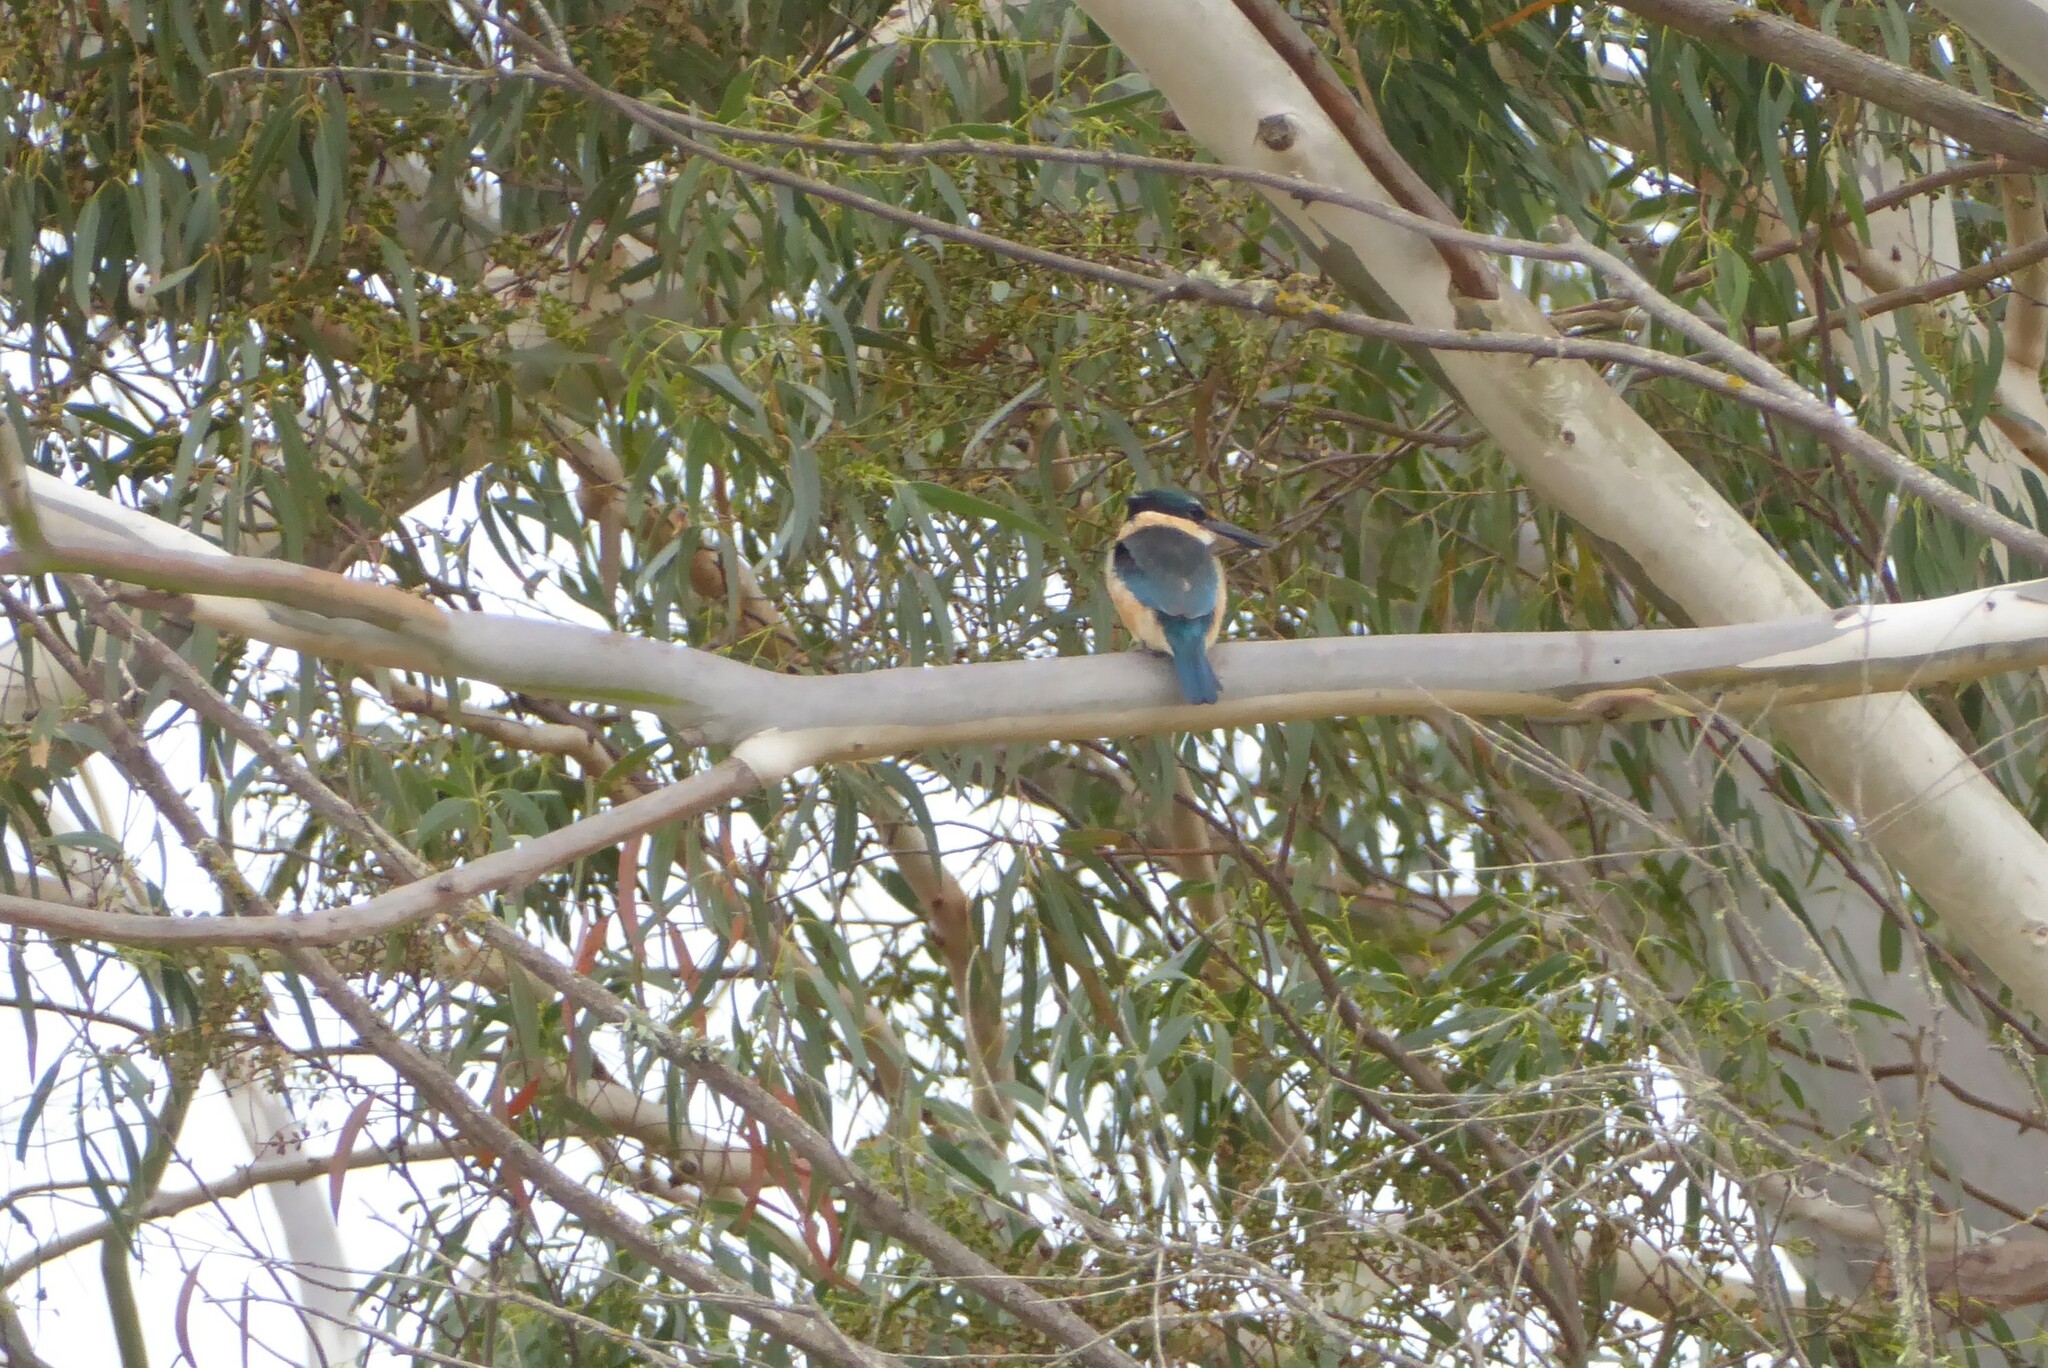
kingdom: Animalia
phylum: Chordata
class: Aves
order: Coraciiformes
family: Alcedinidae
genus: Todiramphus
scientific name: Todiramphus sanctus
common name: Sacred kingfisher
